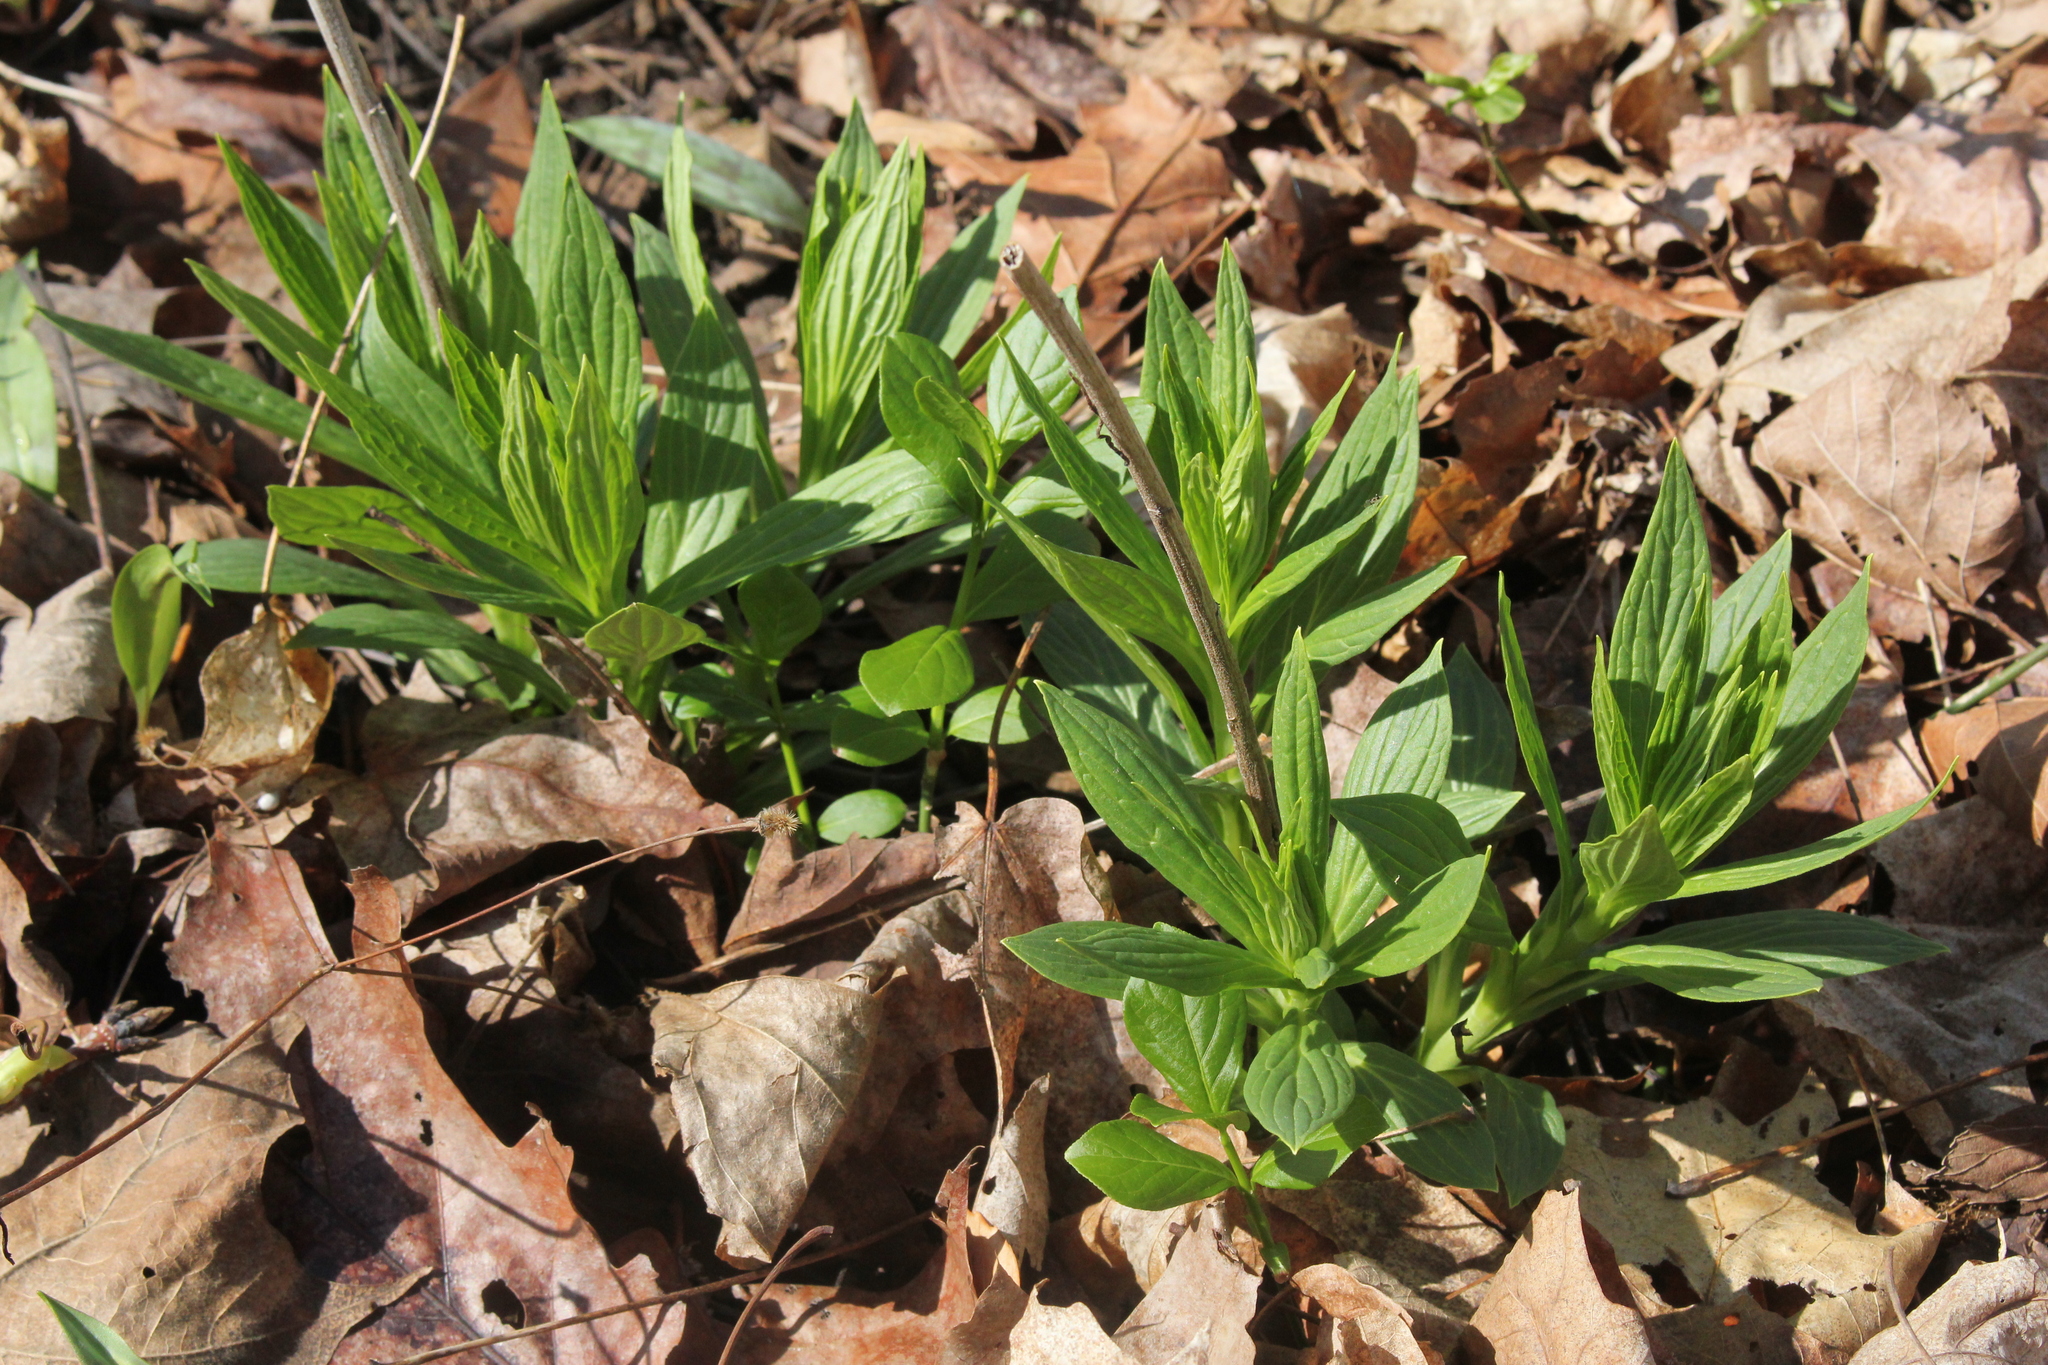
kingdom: Plantae
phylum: Tracheophyta
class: Magnoliopsida
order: Boraginales
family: Boraginaceae
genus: Lithospermum
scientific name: Lithospermum latifolium
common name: American gromwell
